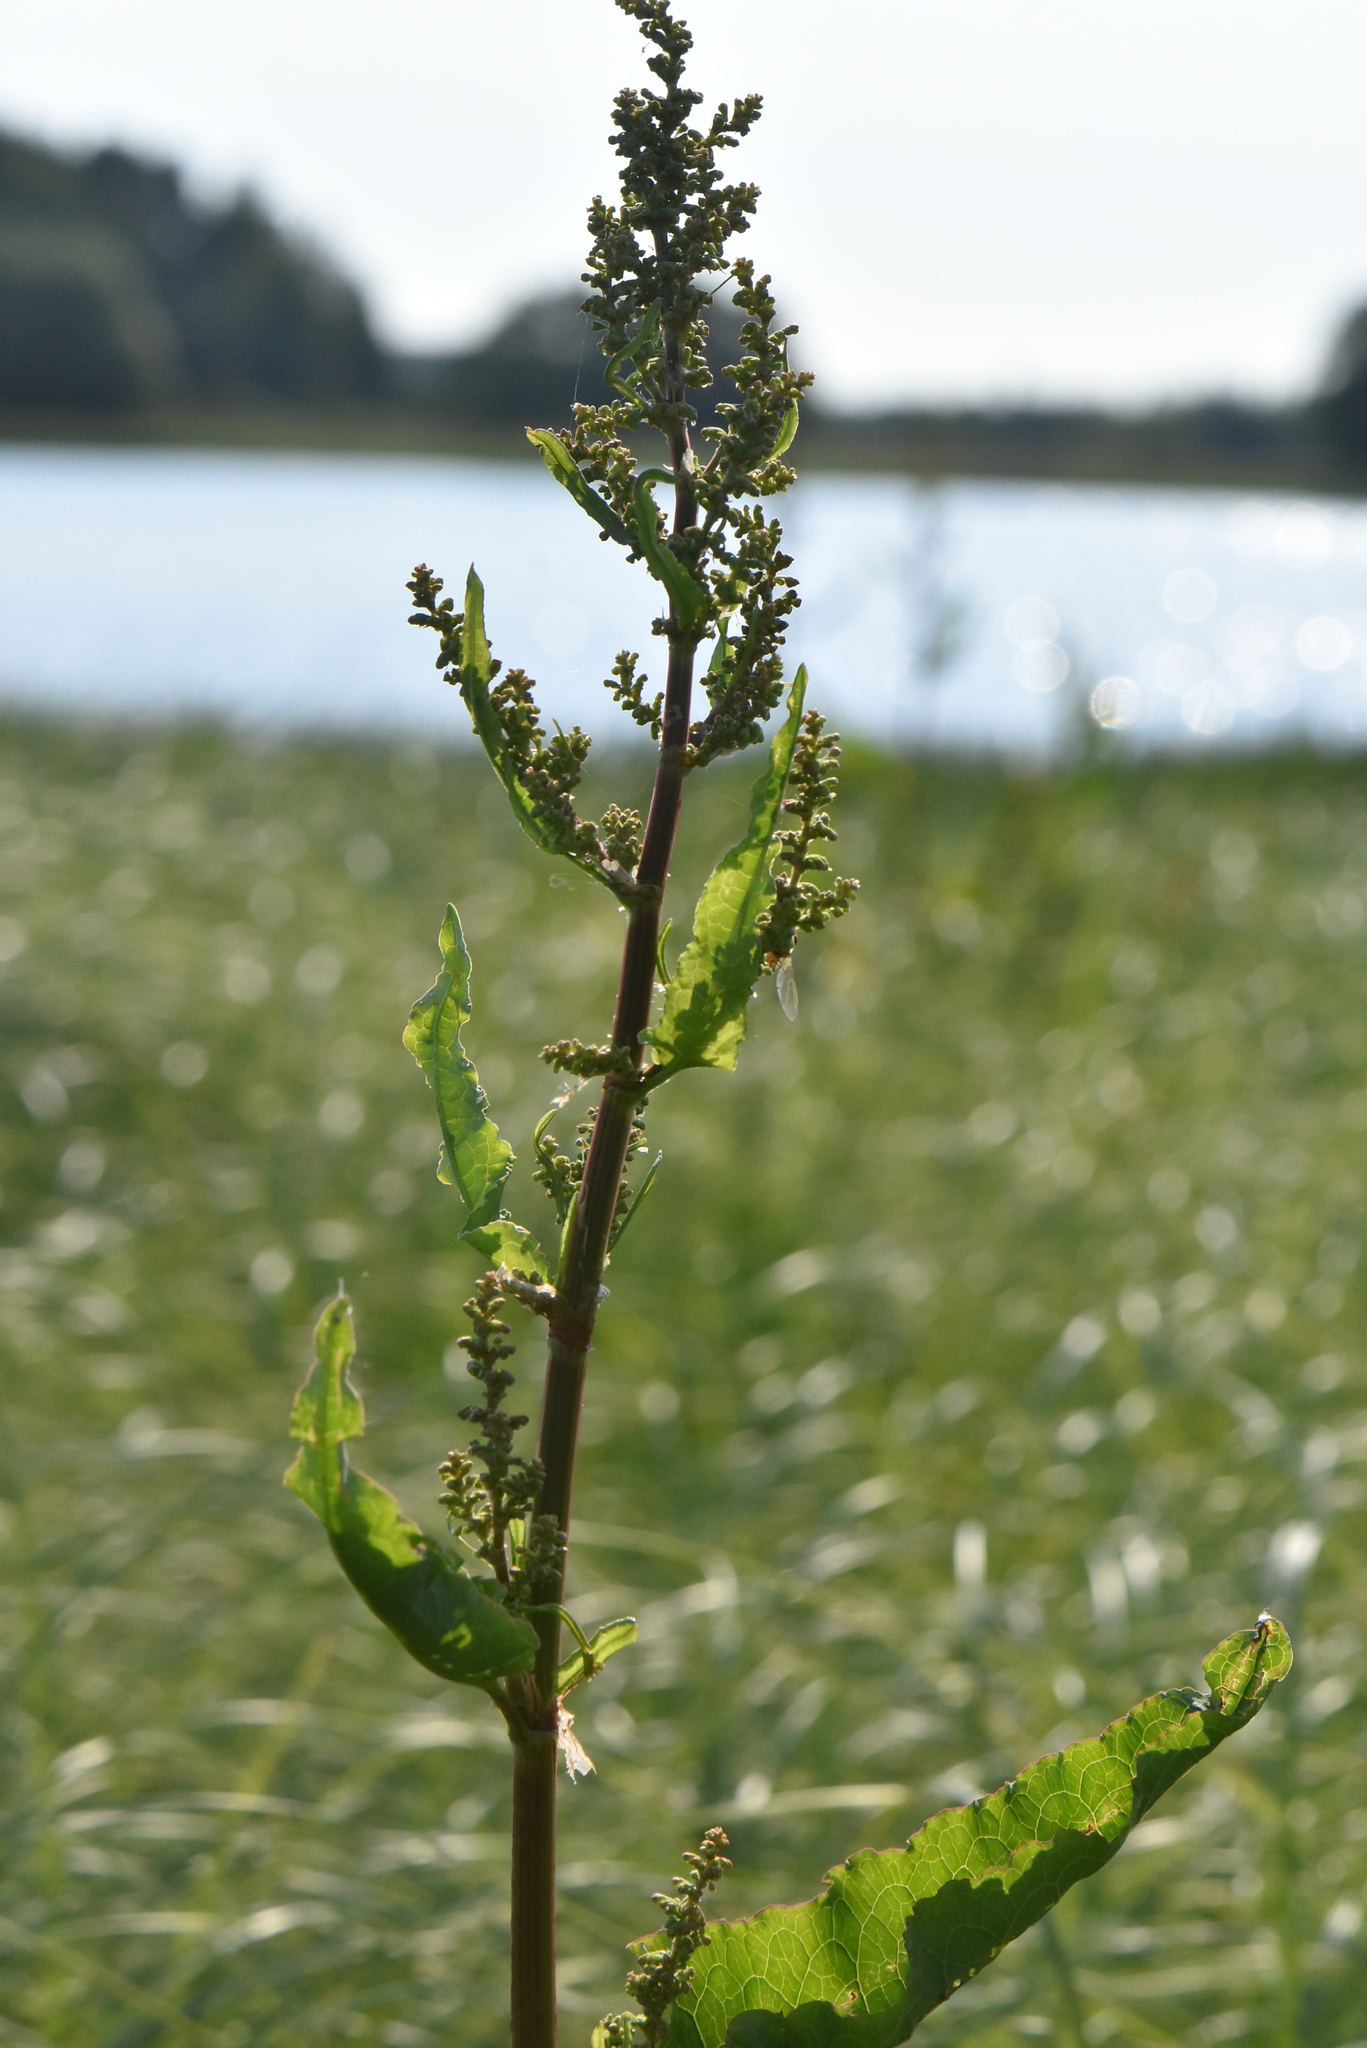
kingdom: Plantae
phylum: Tracheophyta
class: Magnoliopsida
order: Caryophyllales
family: Polygonaceae
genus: Rumex
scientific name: Rumex aquaticus
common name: Scottish dock
